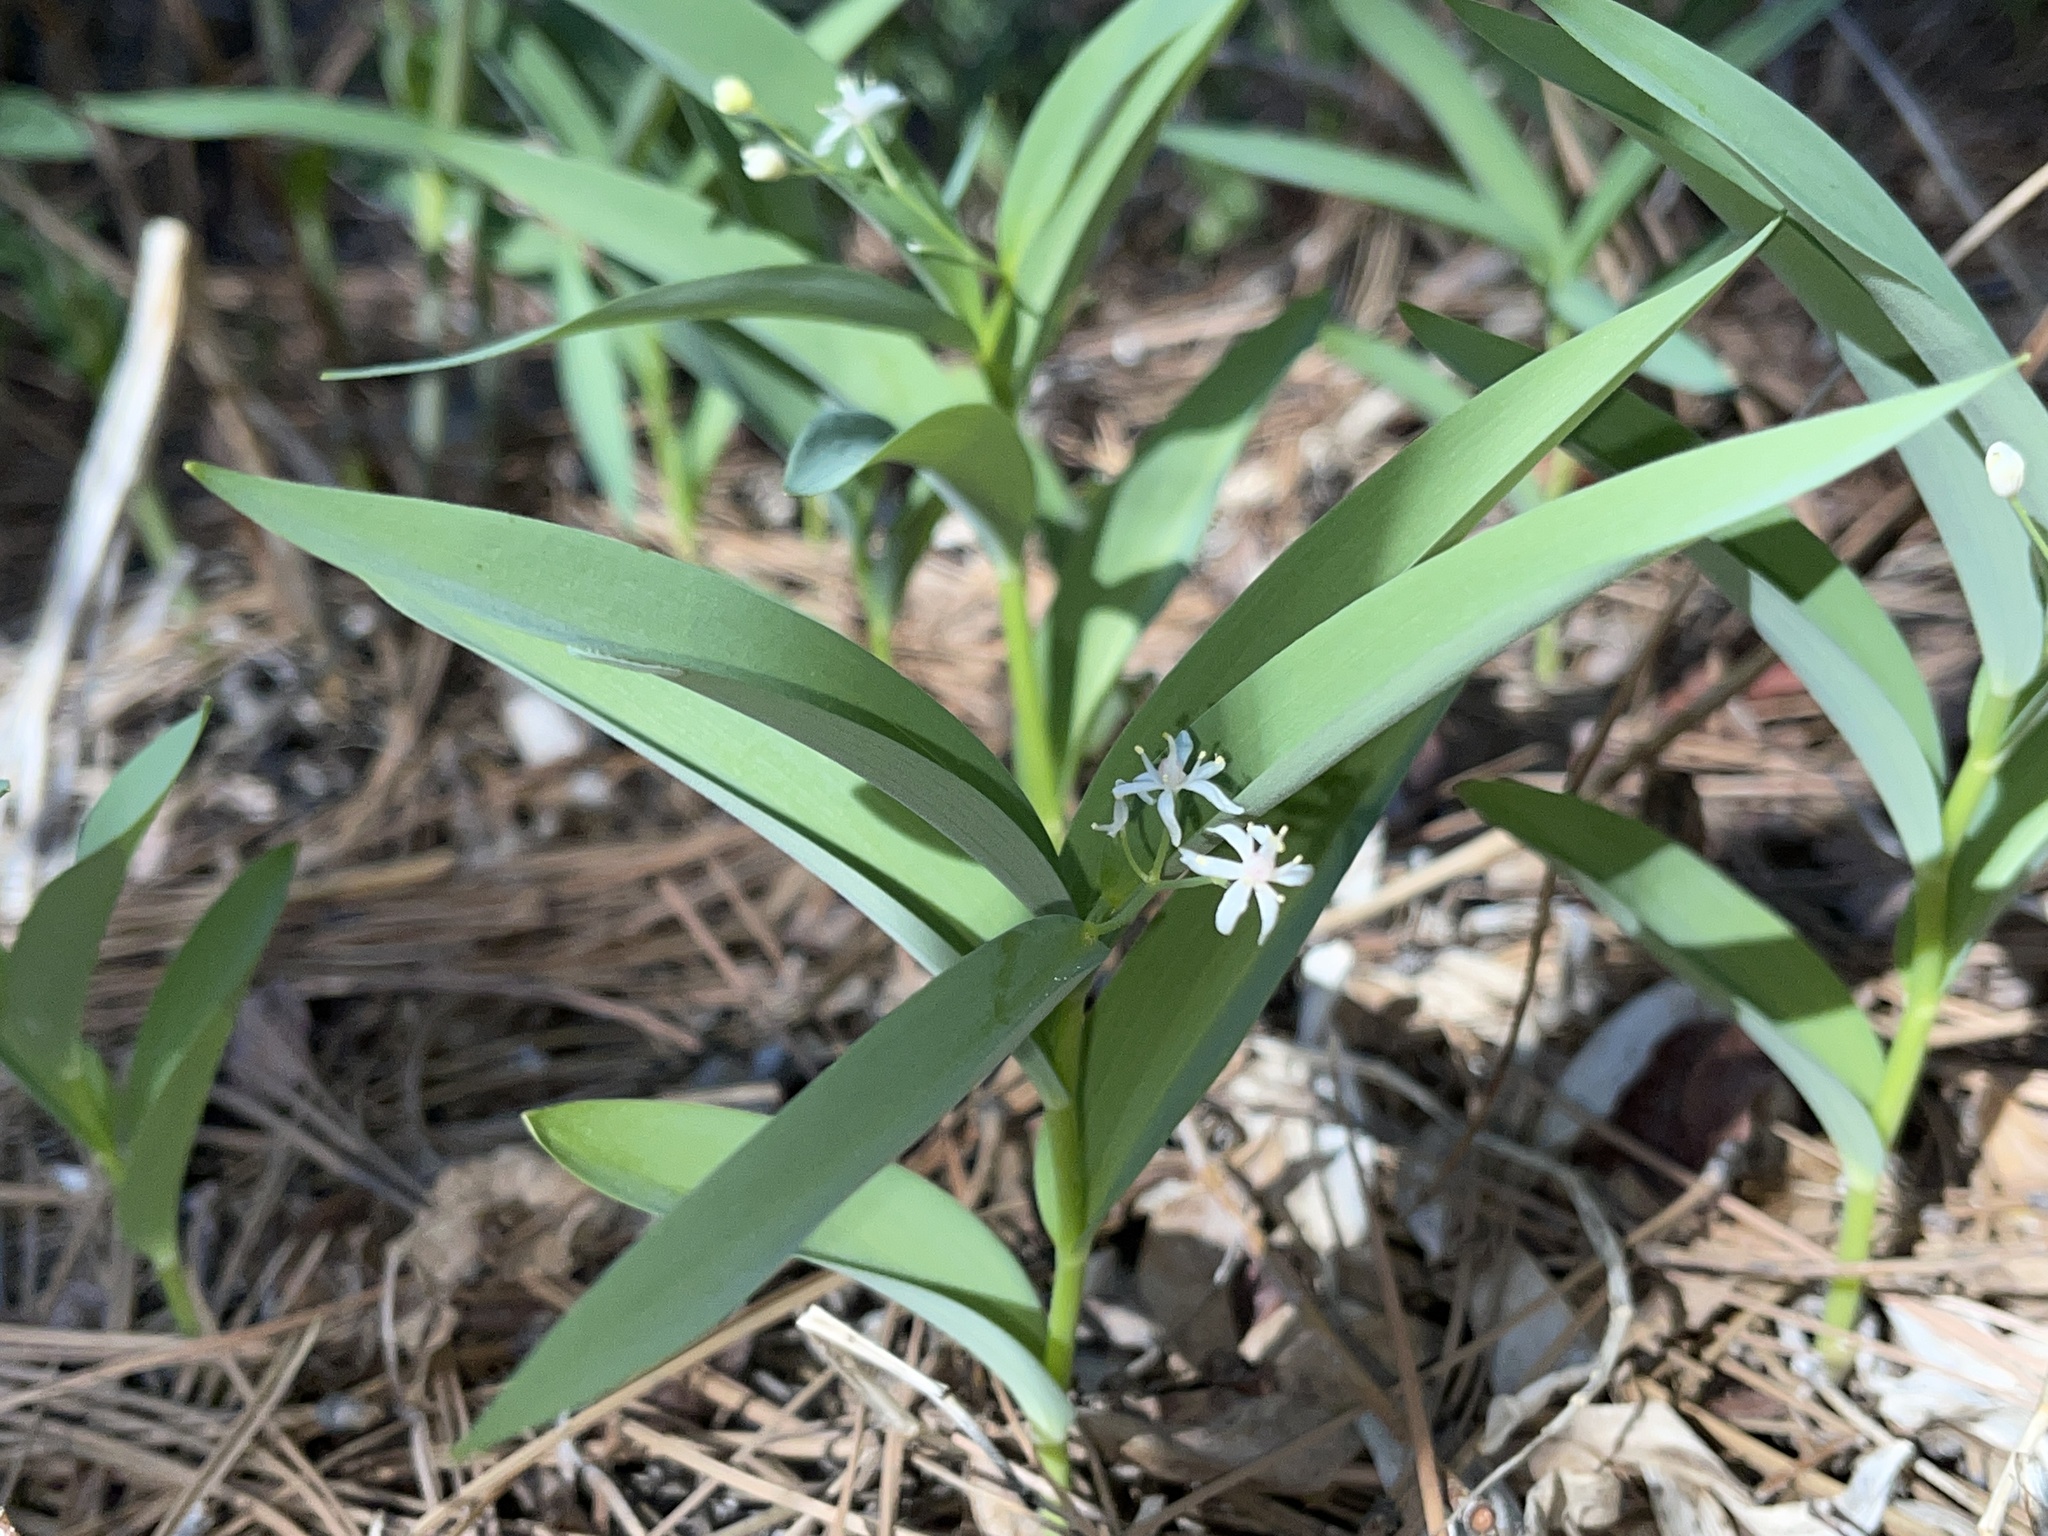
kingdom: Plantae
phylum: Tracheophyta
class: Liliopsida
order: Asparagales
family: Asparagaceae
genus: Maianthemum
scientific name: Maianthemum stellatum
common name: Little false solomon's seal
